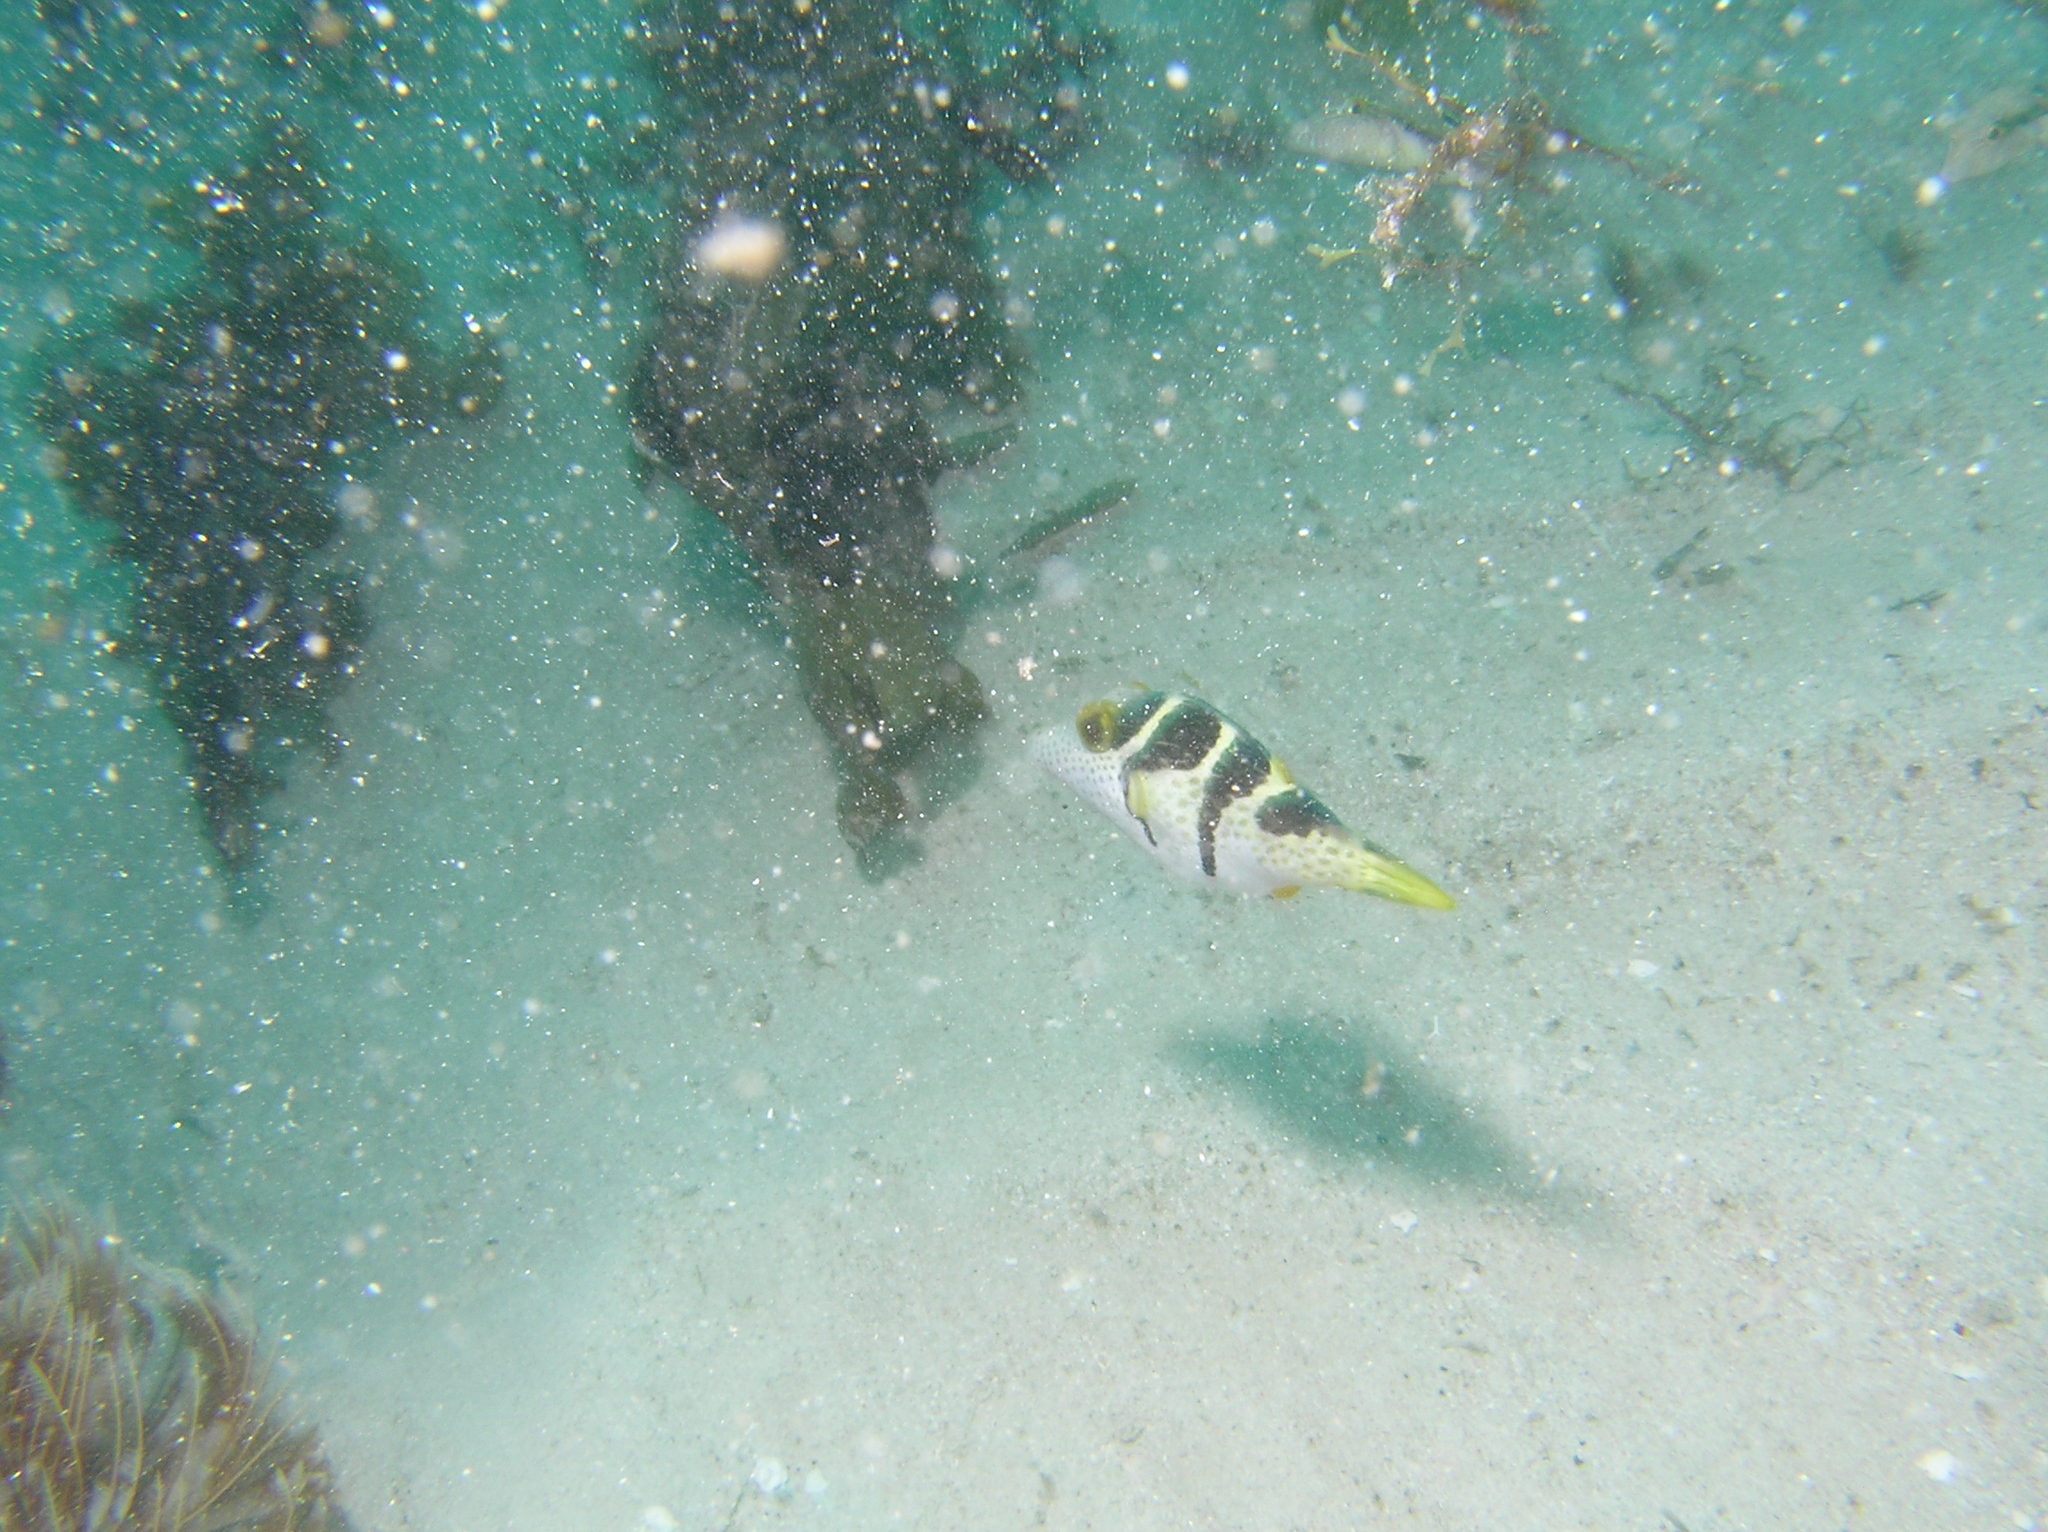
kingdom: Animalia
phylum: Chordata
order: Tetraodontiformes
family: Tetraodontidae
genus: Canthigaster
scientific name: Canthigaster valentini
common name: Banded toby
